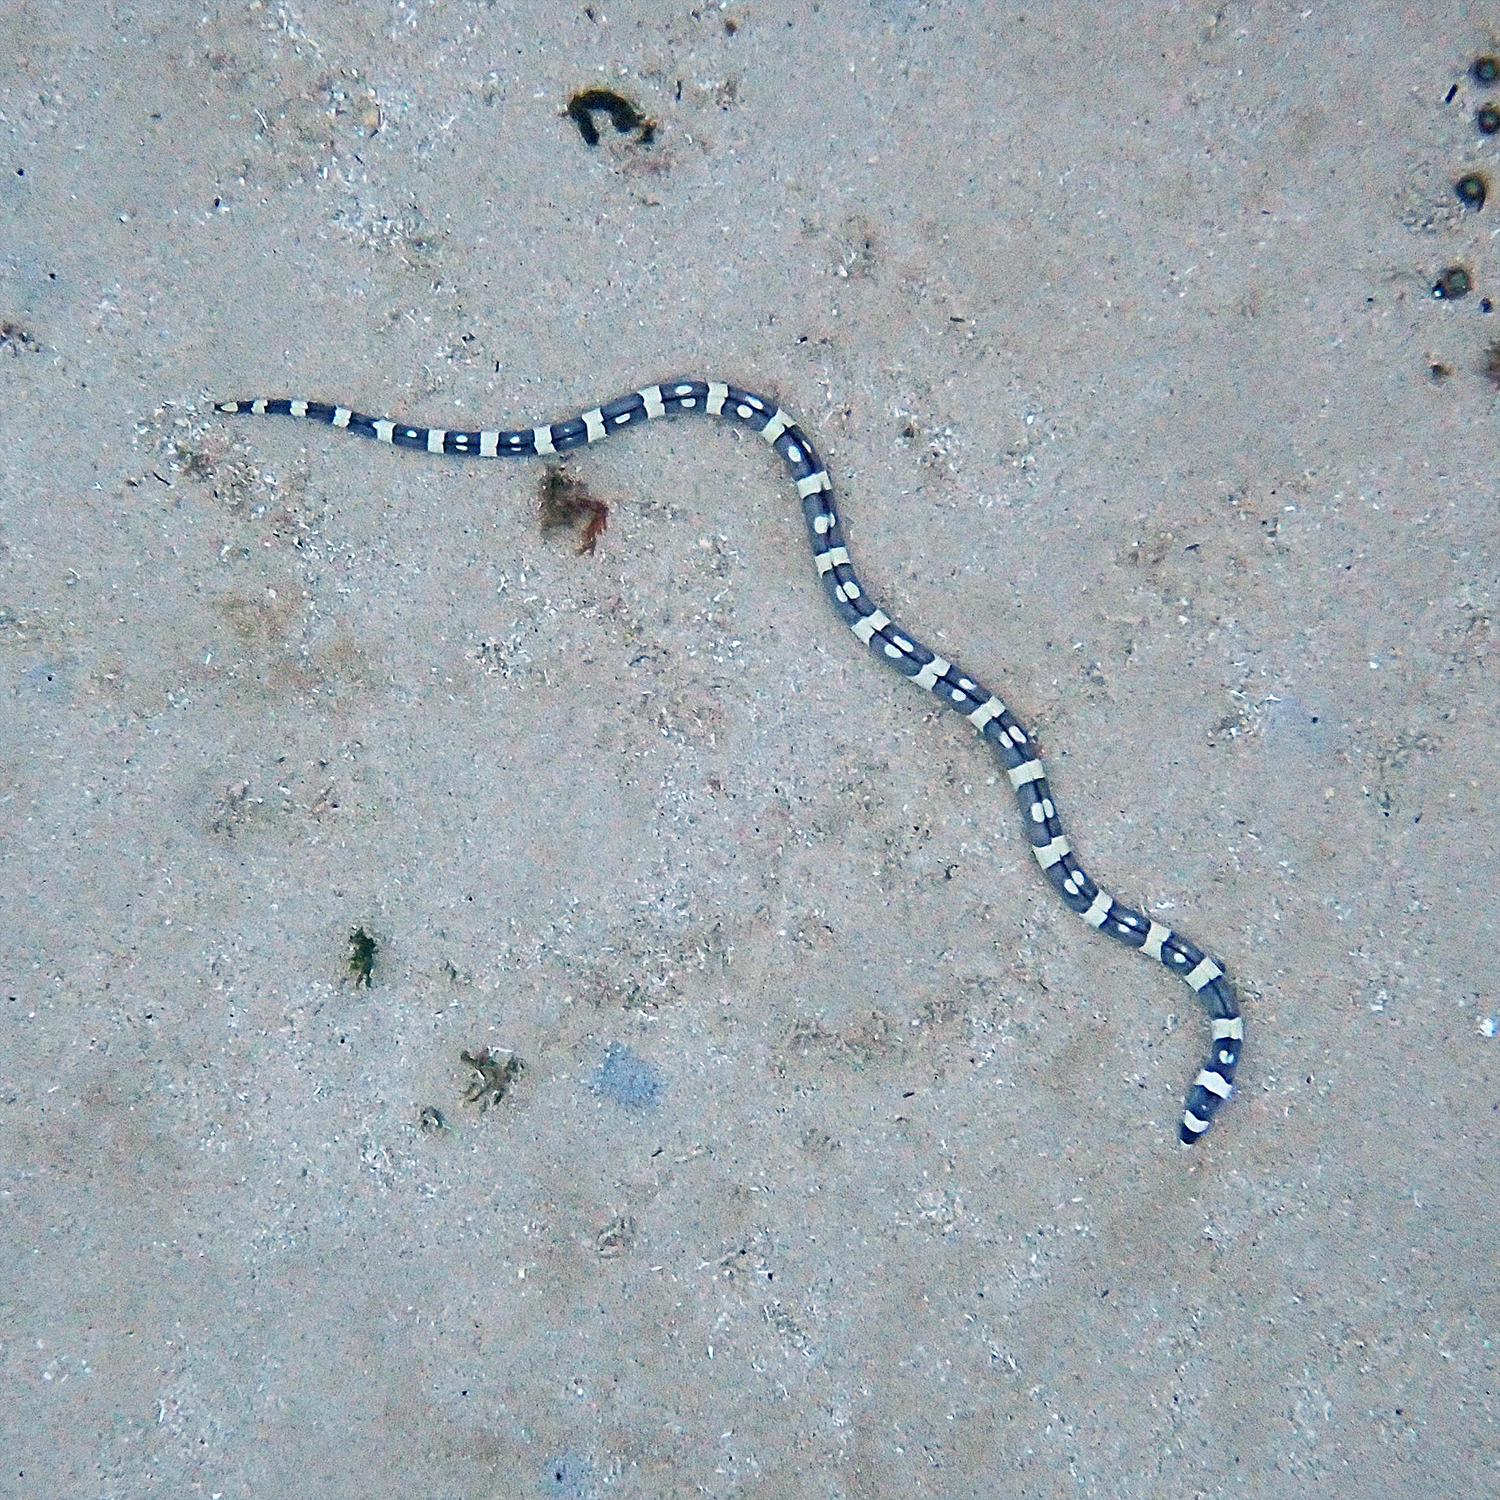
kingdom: Animalia
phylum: Chordata
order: Anguilliformes
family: Ophichthidae
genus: Leiuranus
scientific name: Leiuranus versicolor
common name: Convict snake eel
